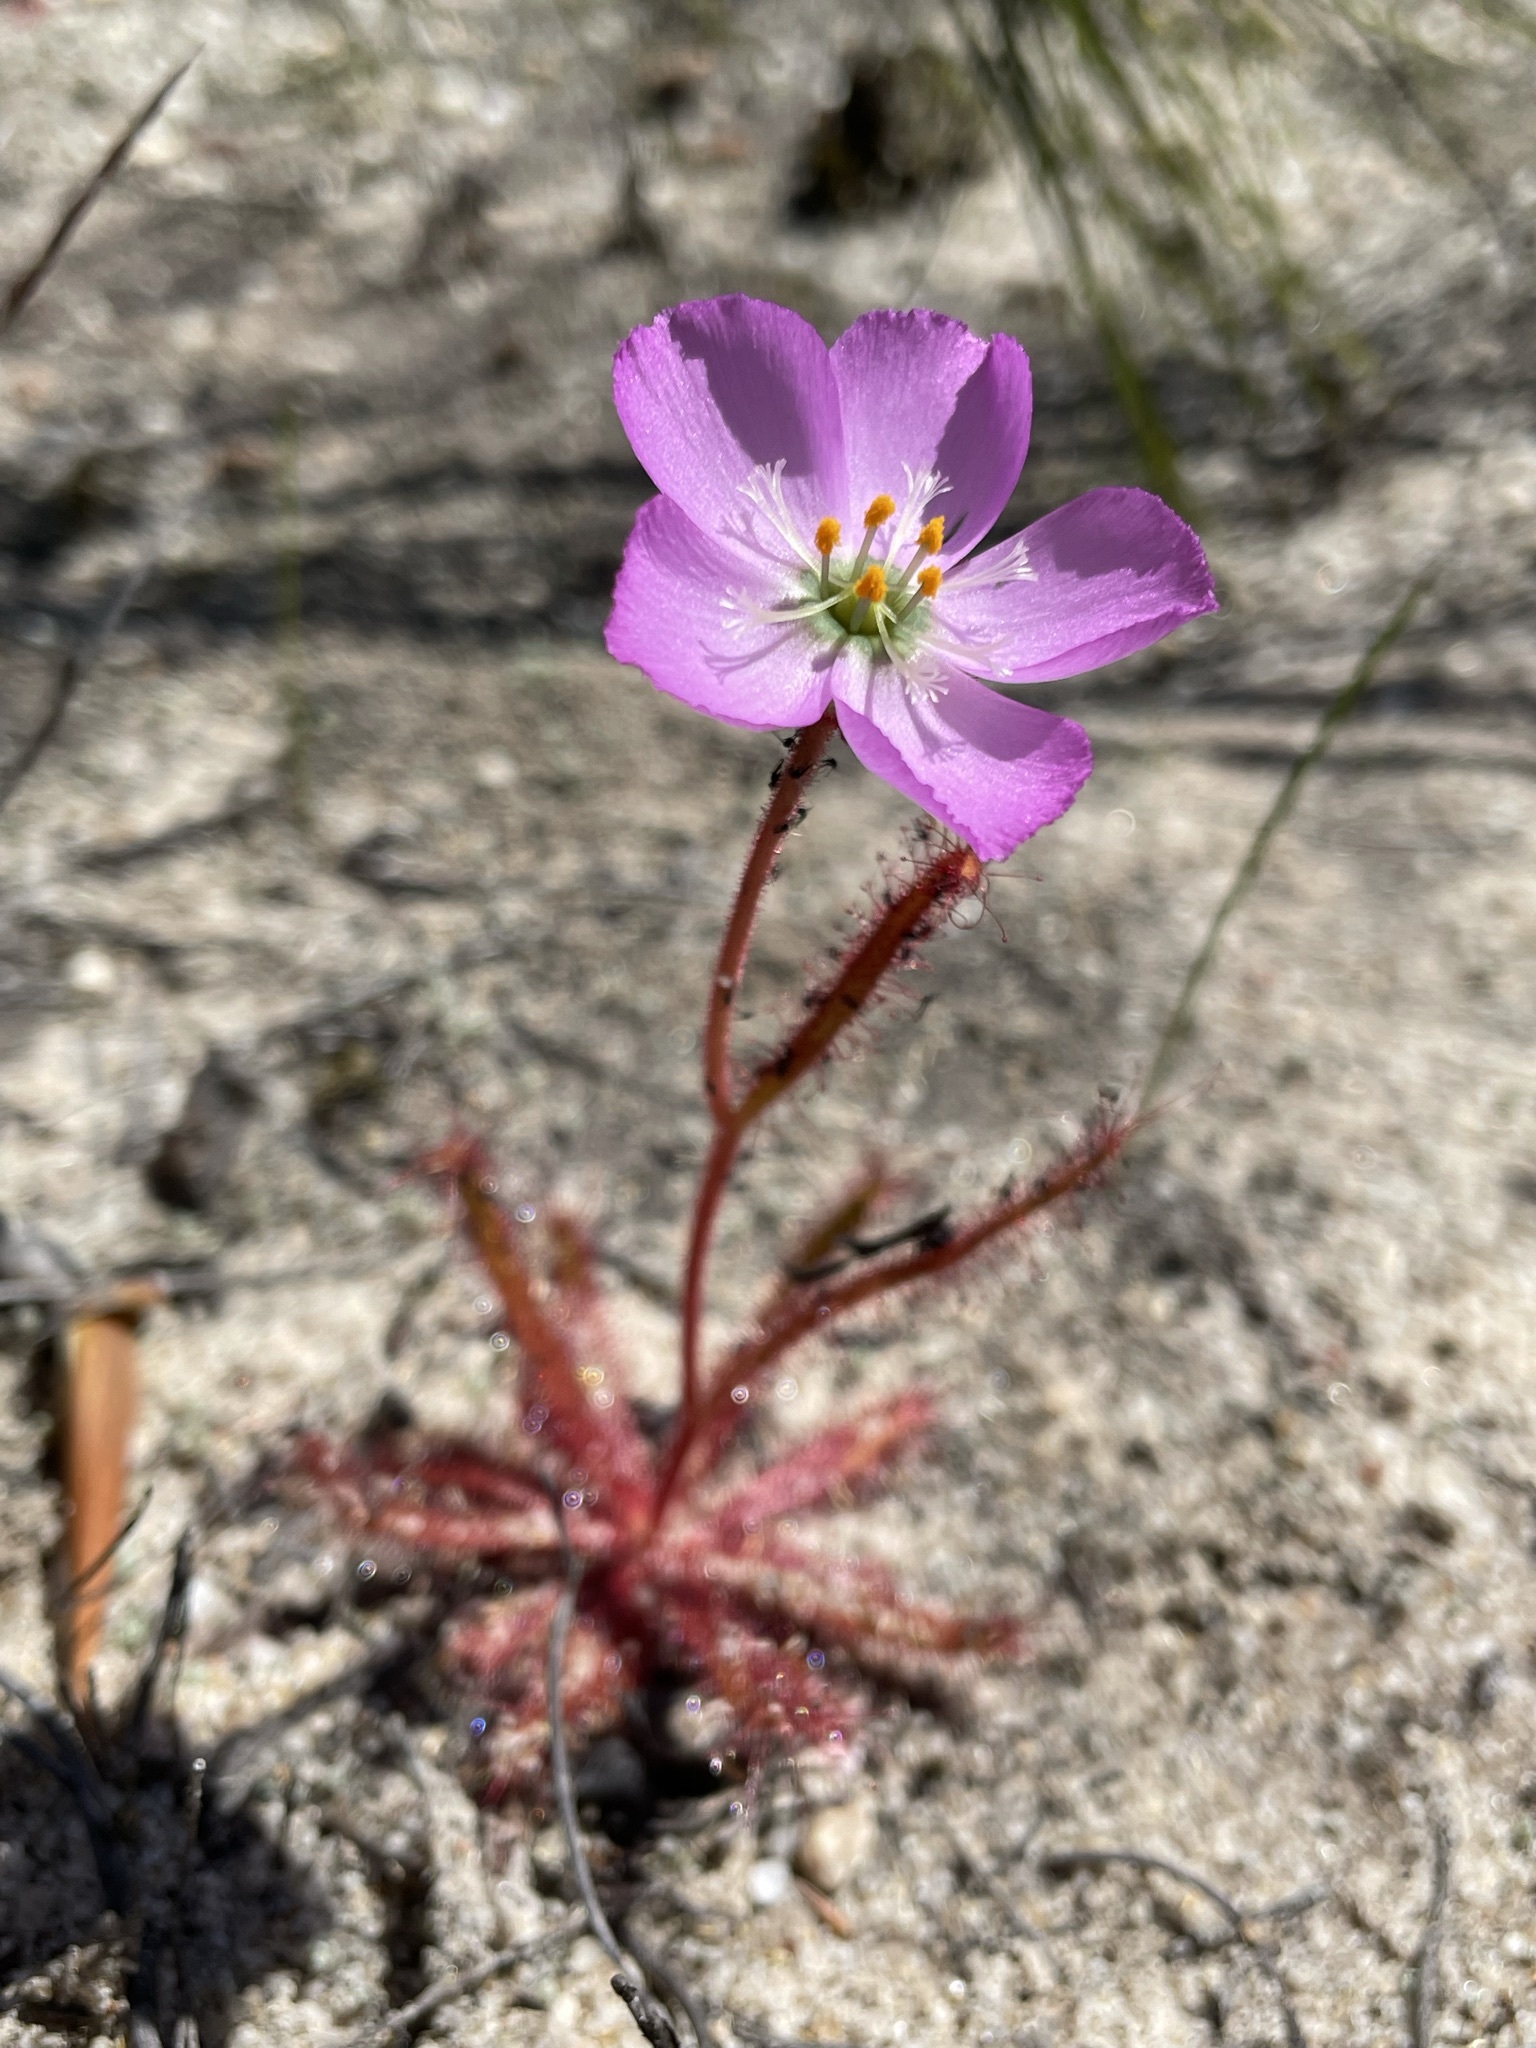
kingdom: Plantae
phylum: Tracheophyta
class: Magnoliopsida
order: Caryophyllales
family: Droseraceae
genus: Drosera
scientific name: Drosera cistiflora
